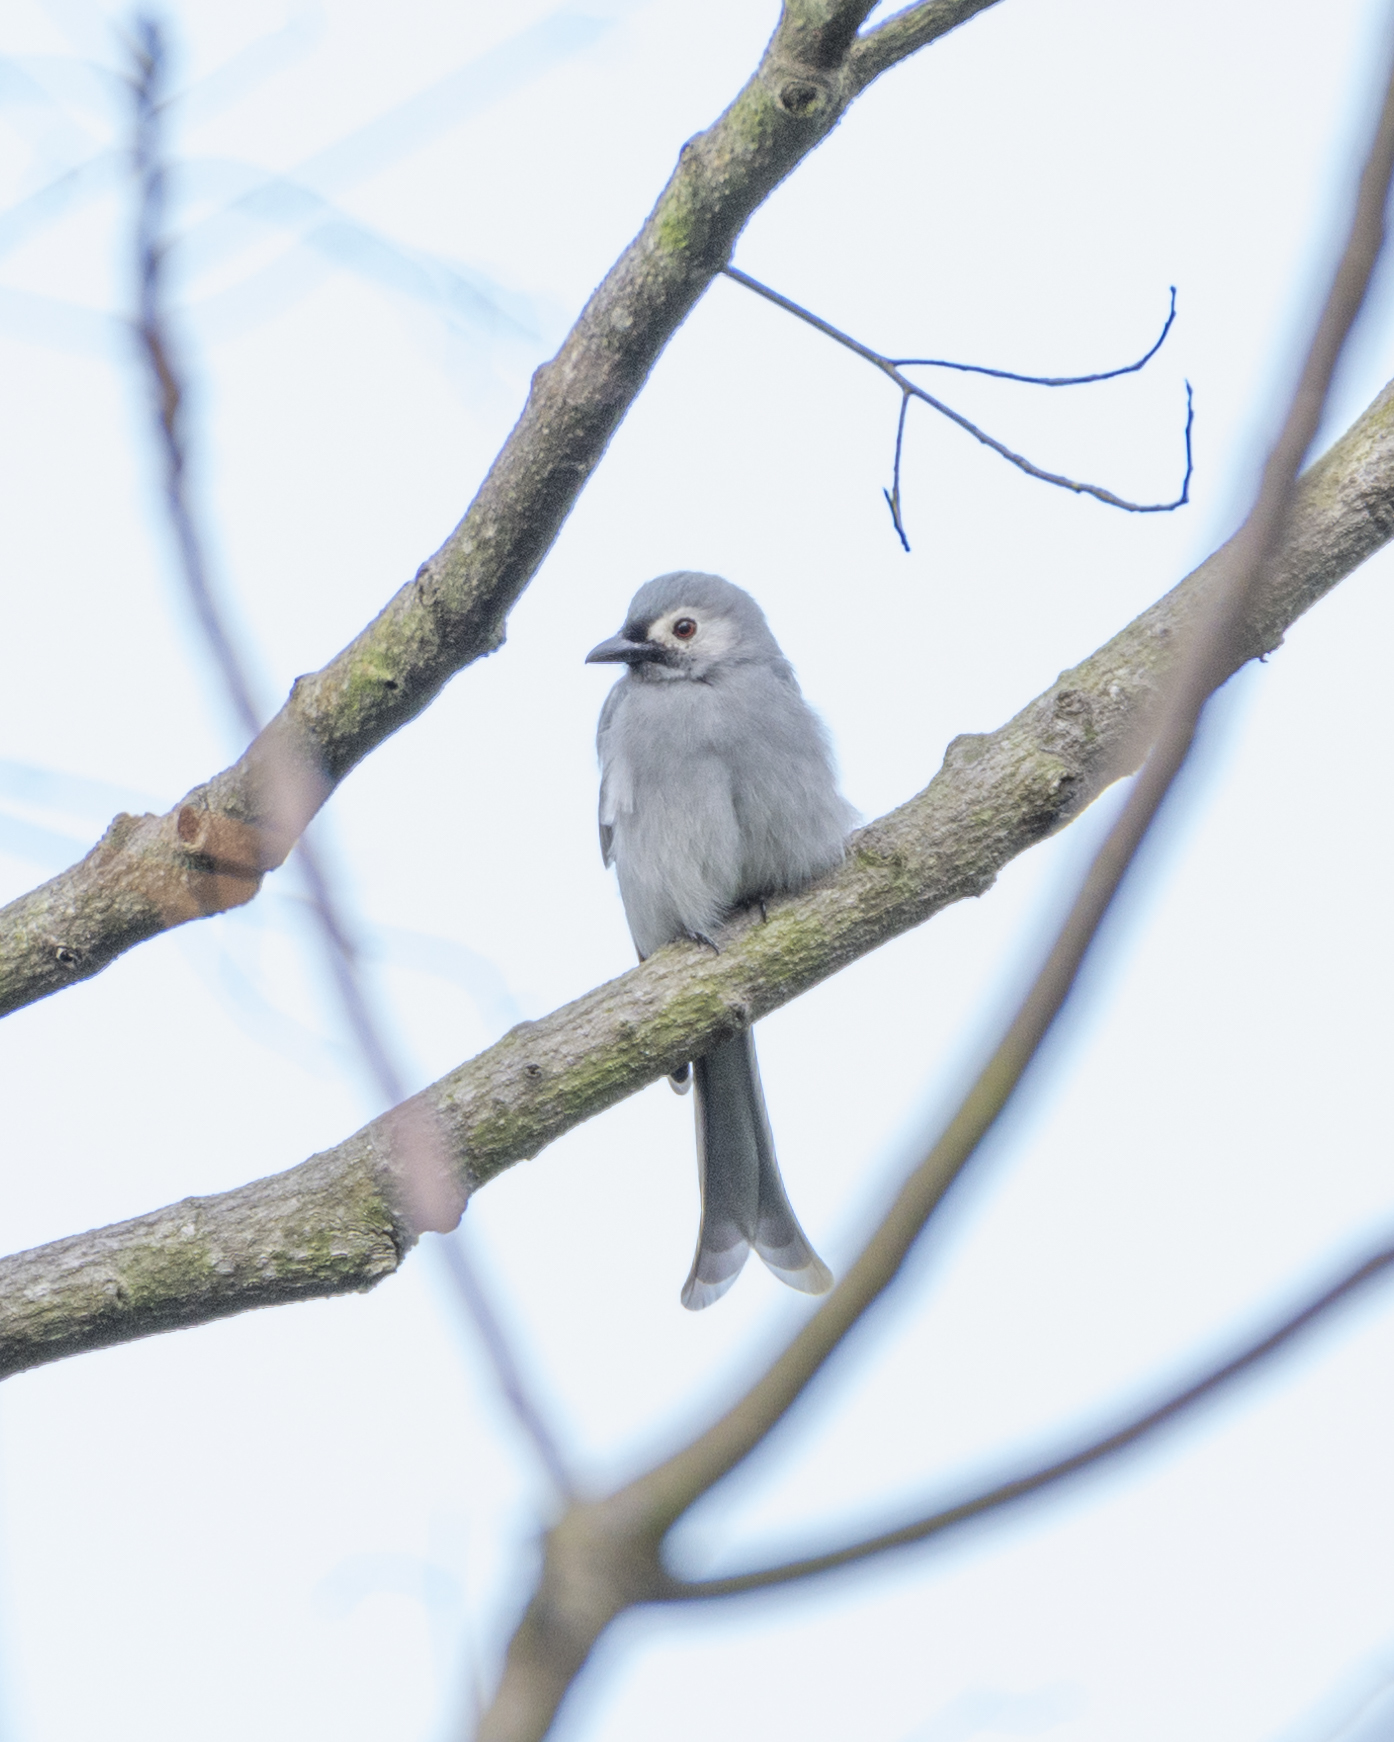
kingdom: Animalia
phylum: Chordata
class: Aves
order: Passeriformes
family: Dicruridae
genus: Dicrurus
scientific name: Dicrurus leucophaeus
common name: Ashy drongo
